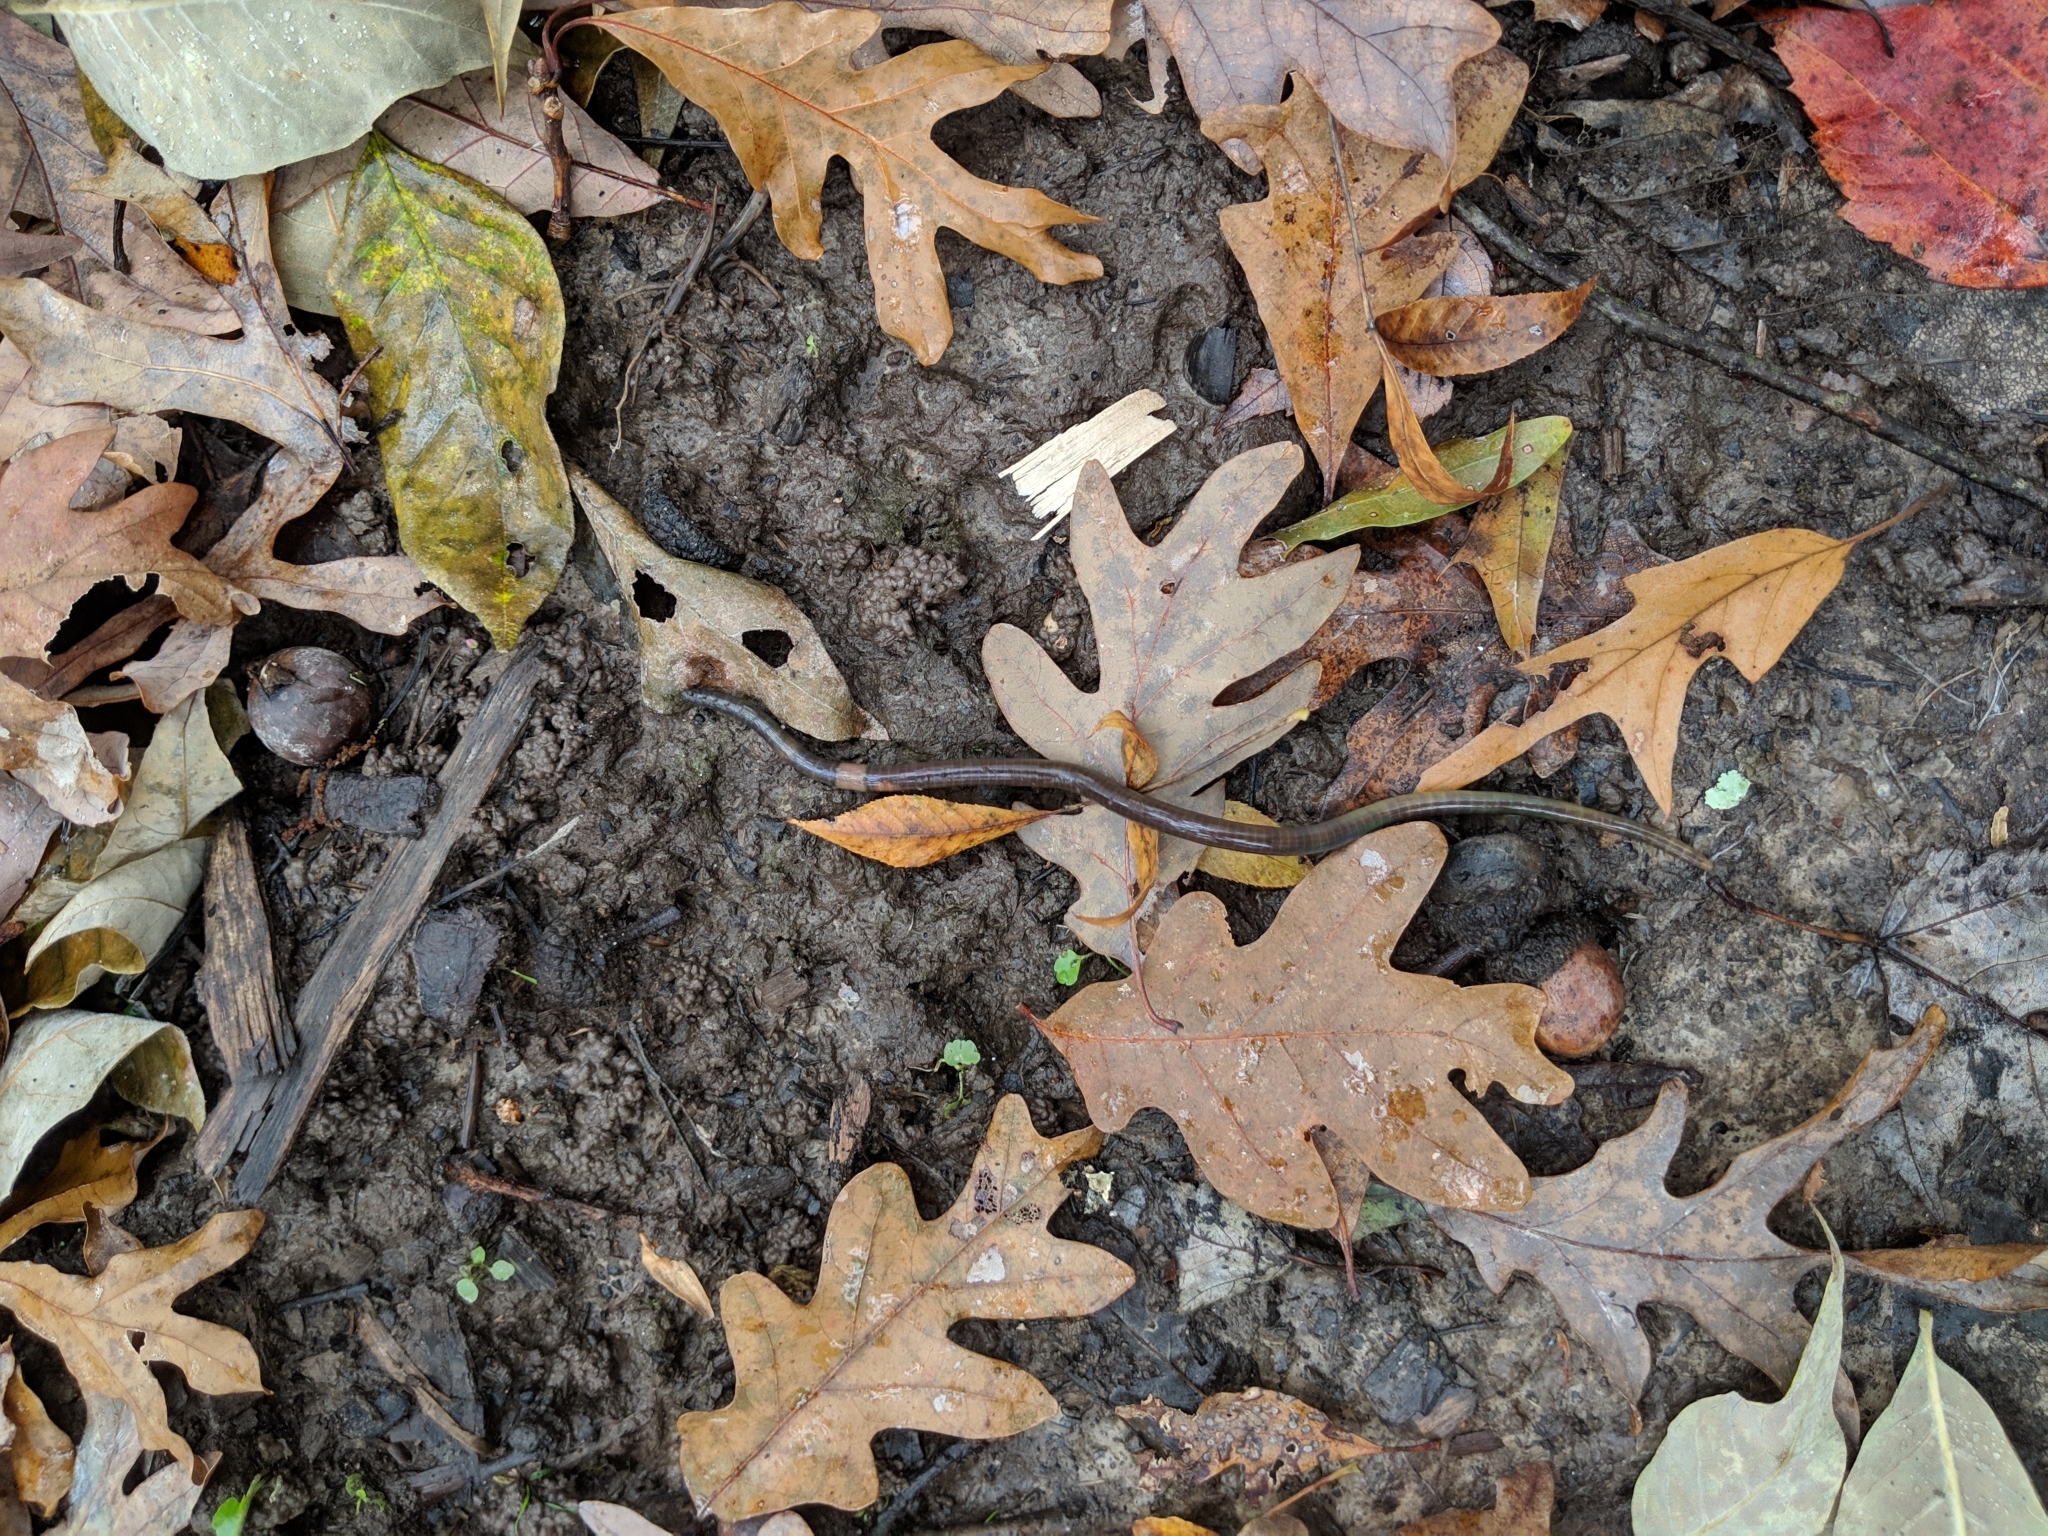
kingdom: Animalia
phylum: Annelida
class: Clitellata
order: Crassiclitellata
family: Megascolecidae
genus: Amynthas
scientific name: Amynthas agrestis
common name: Jumping snake worm
